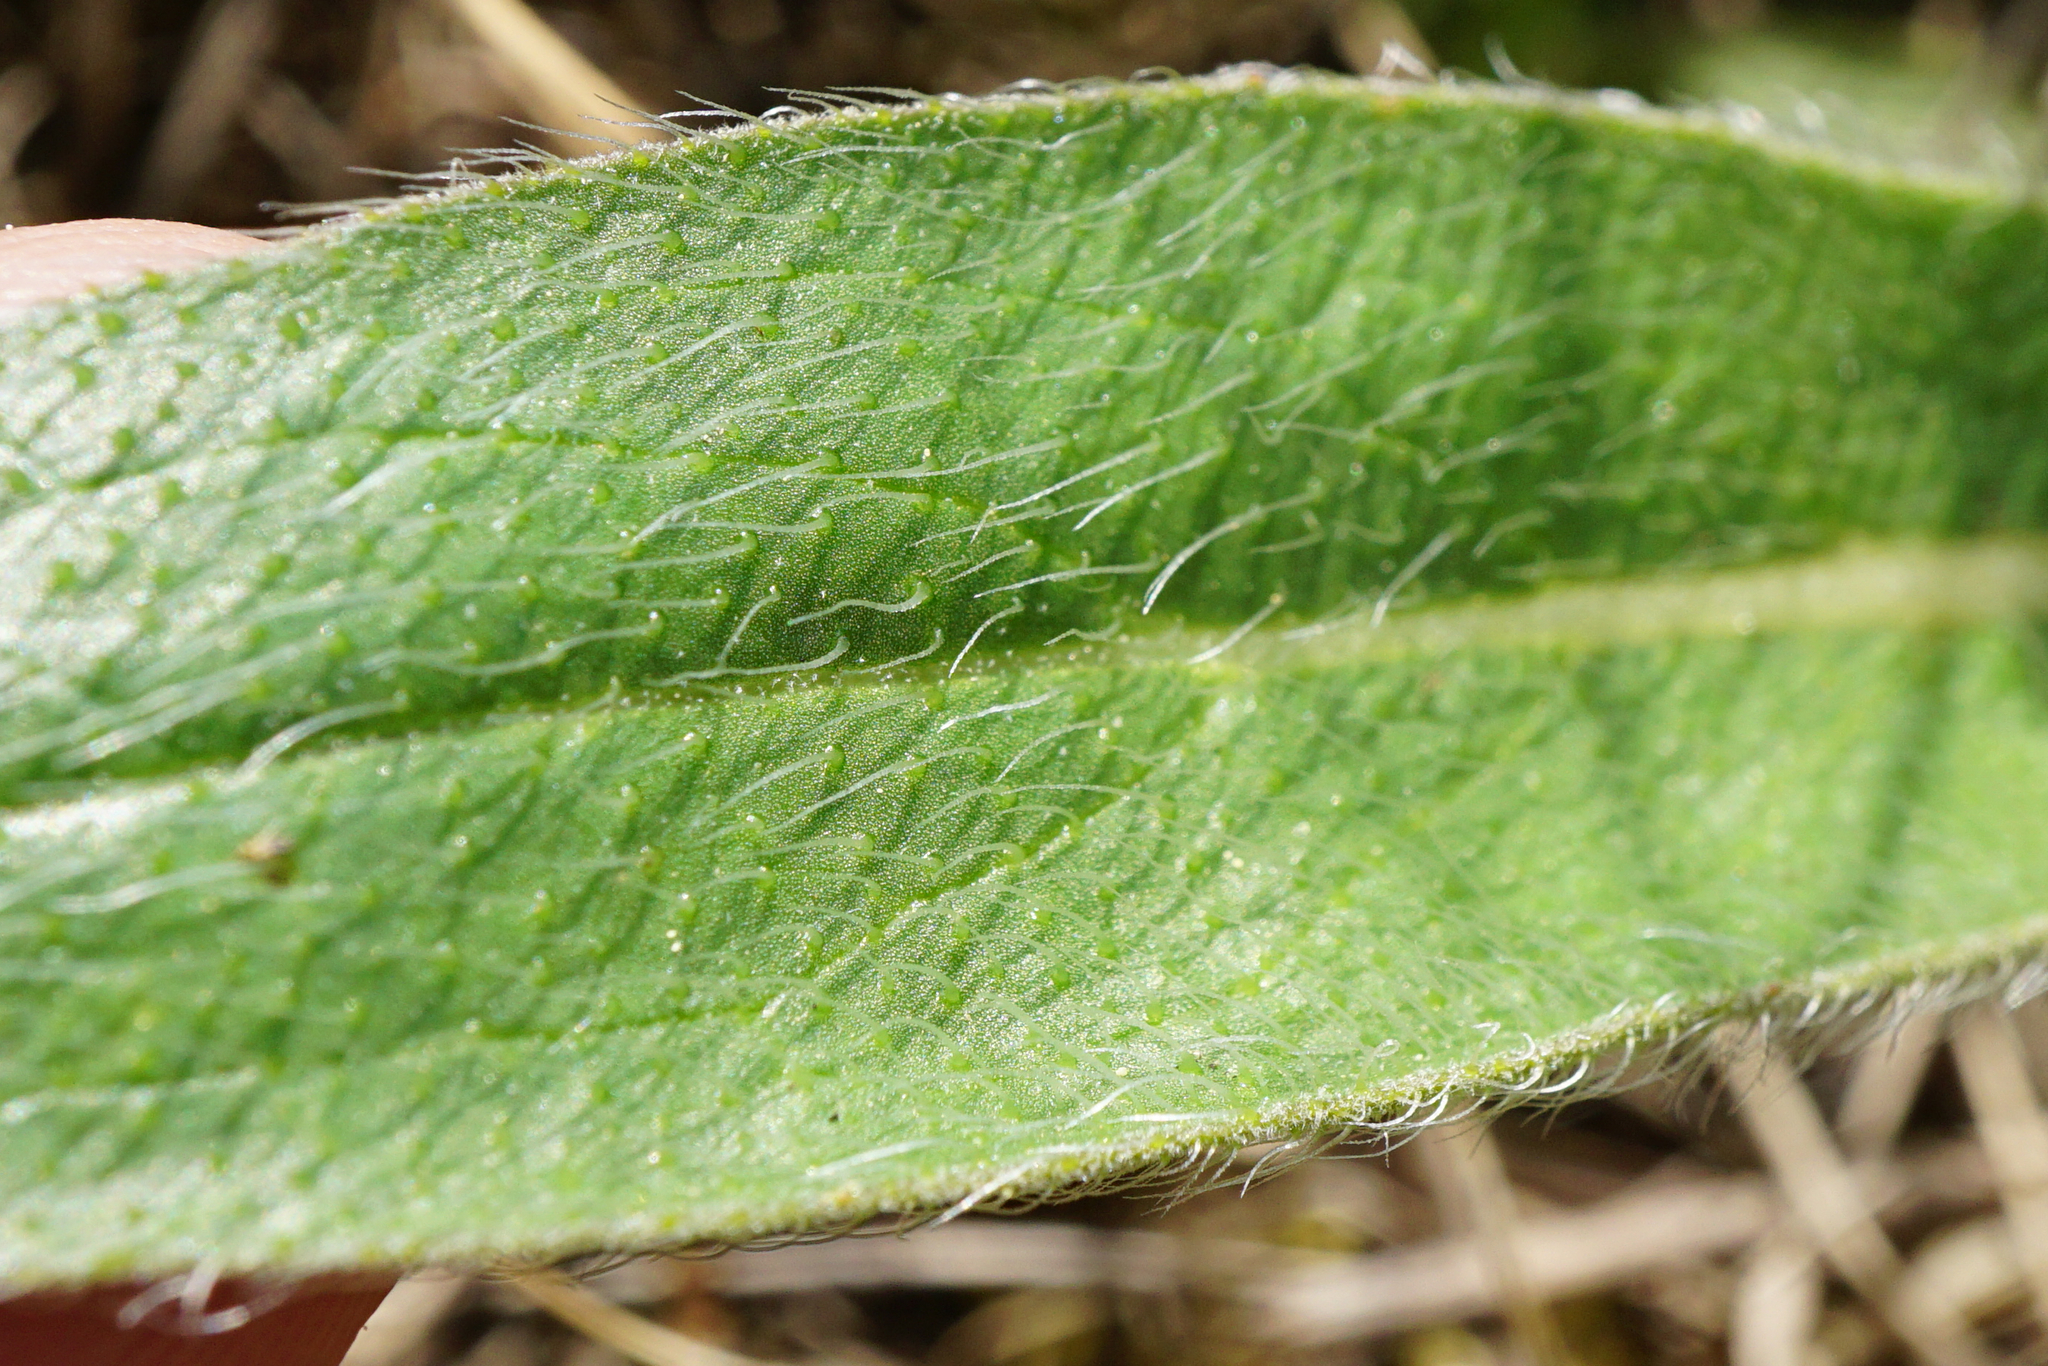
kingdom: Plantae
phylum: Tracheophyta
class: Magnoliopsida
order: Asterales
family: Asteraceae
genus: Pilosella
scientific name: Pilosella echioides
